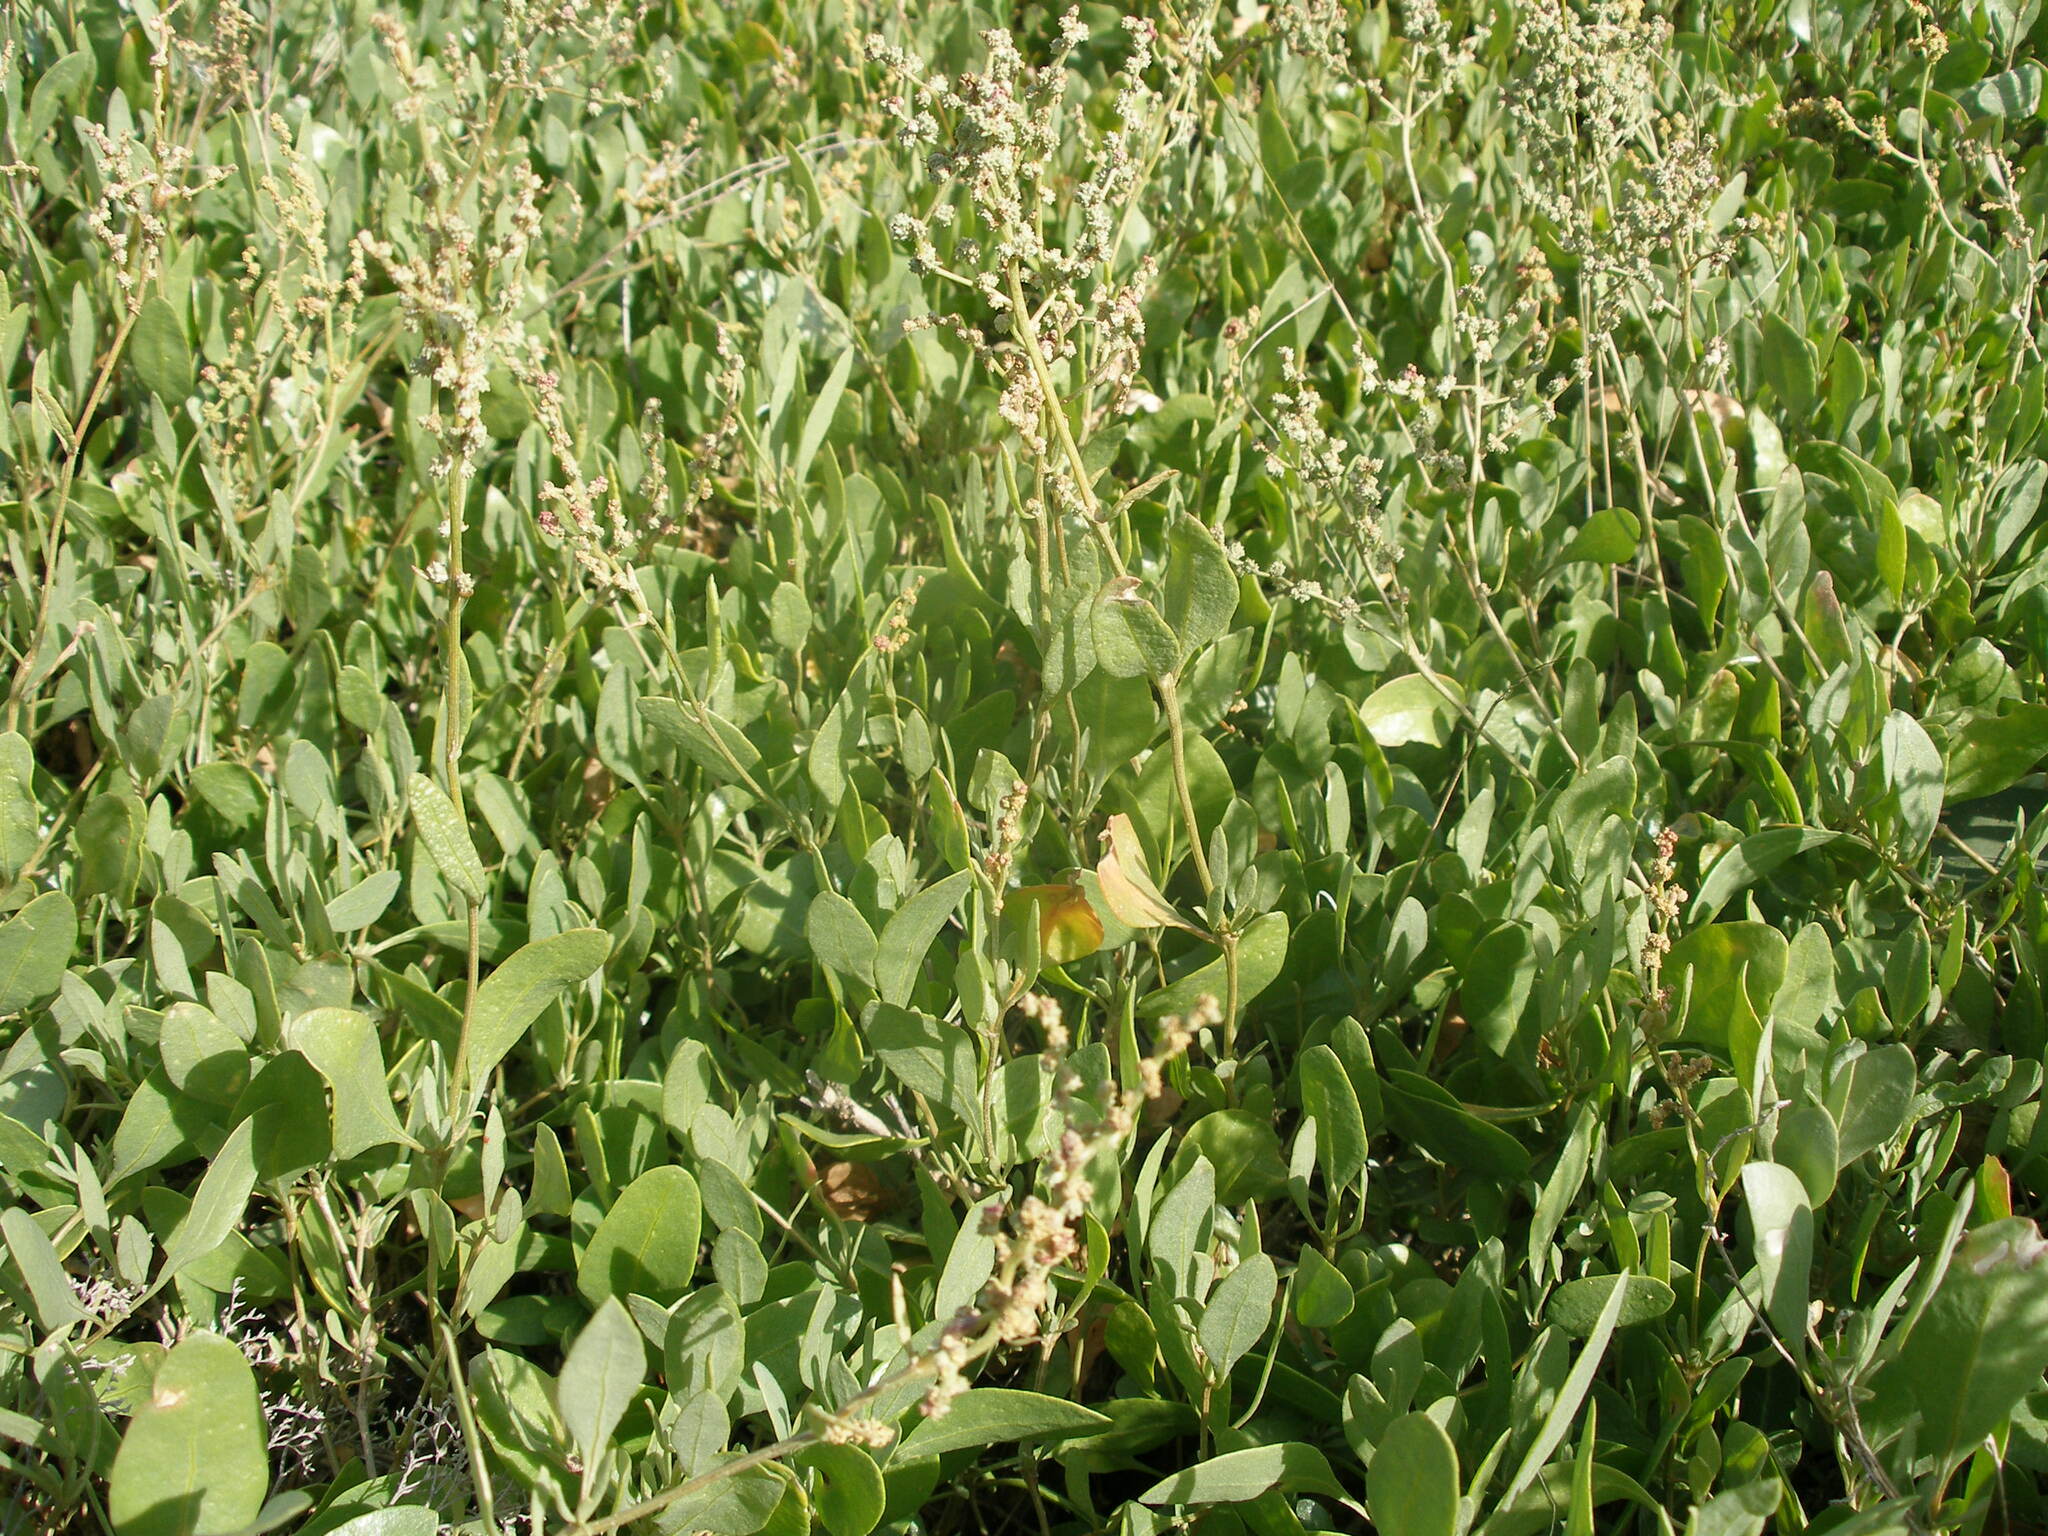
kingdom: Plantae
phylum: Tracheophyta
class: Magnoliopsida
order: Caryophyllales
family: Amaranthaceae
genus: Halimione
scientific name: Halimione verrucifera
